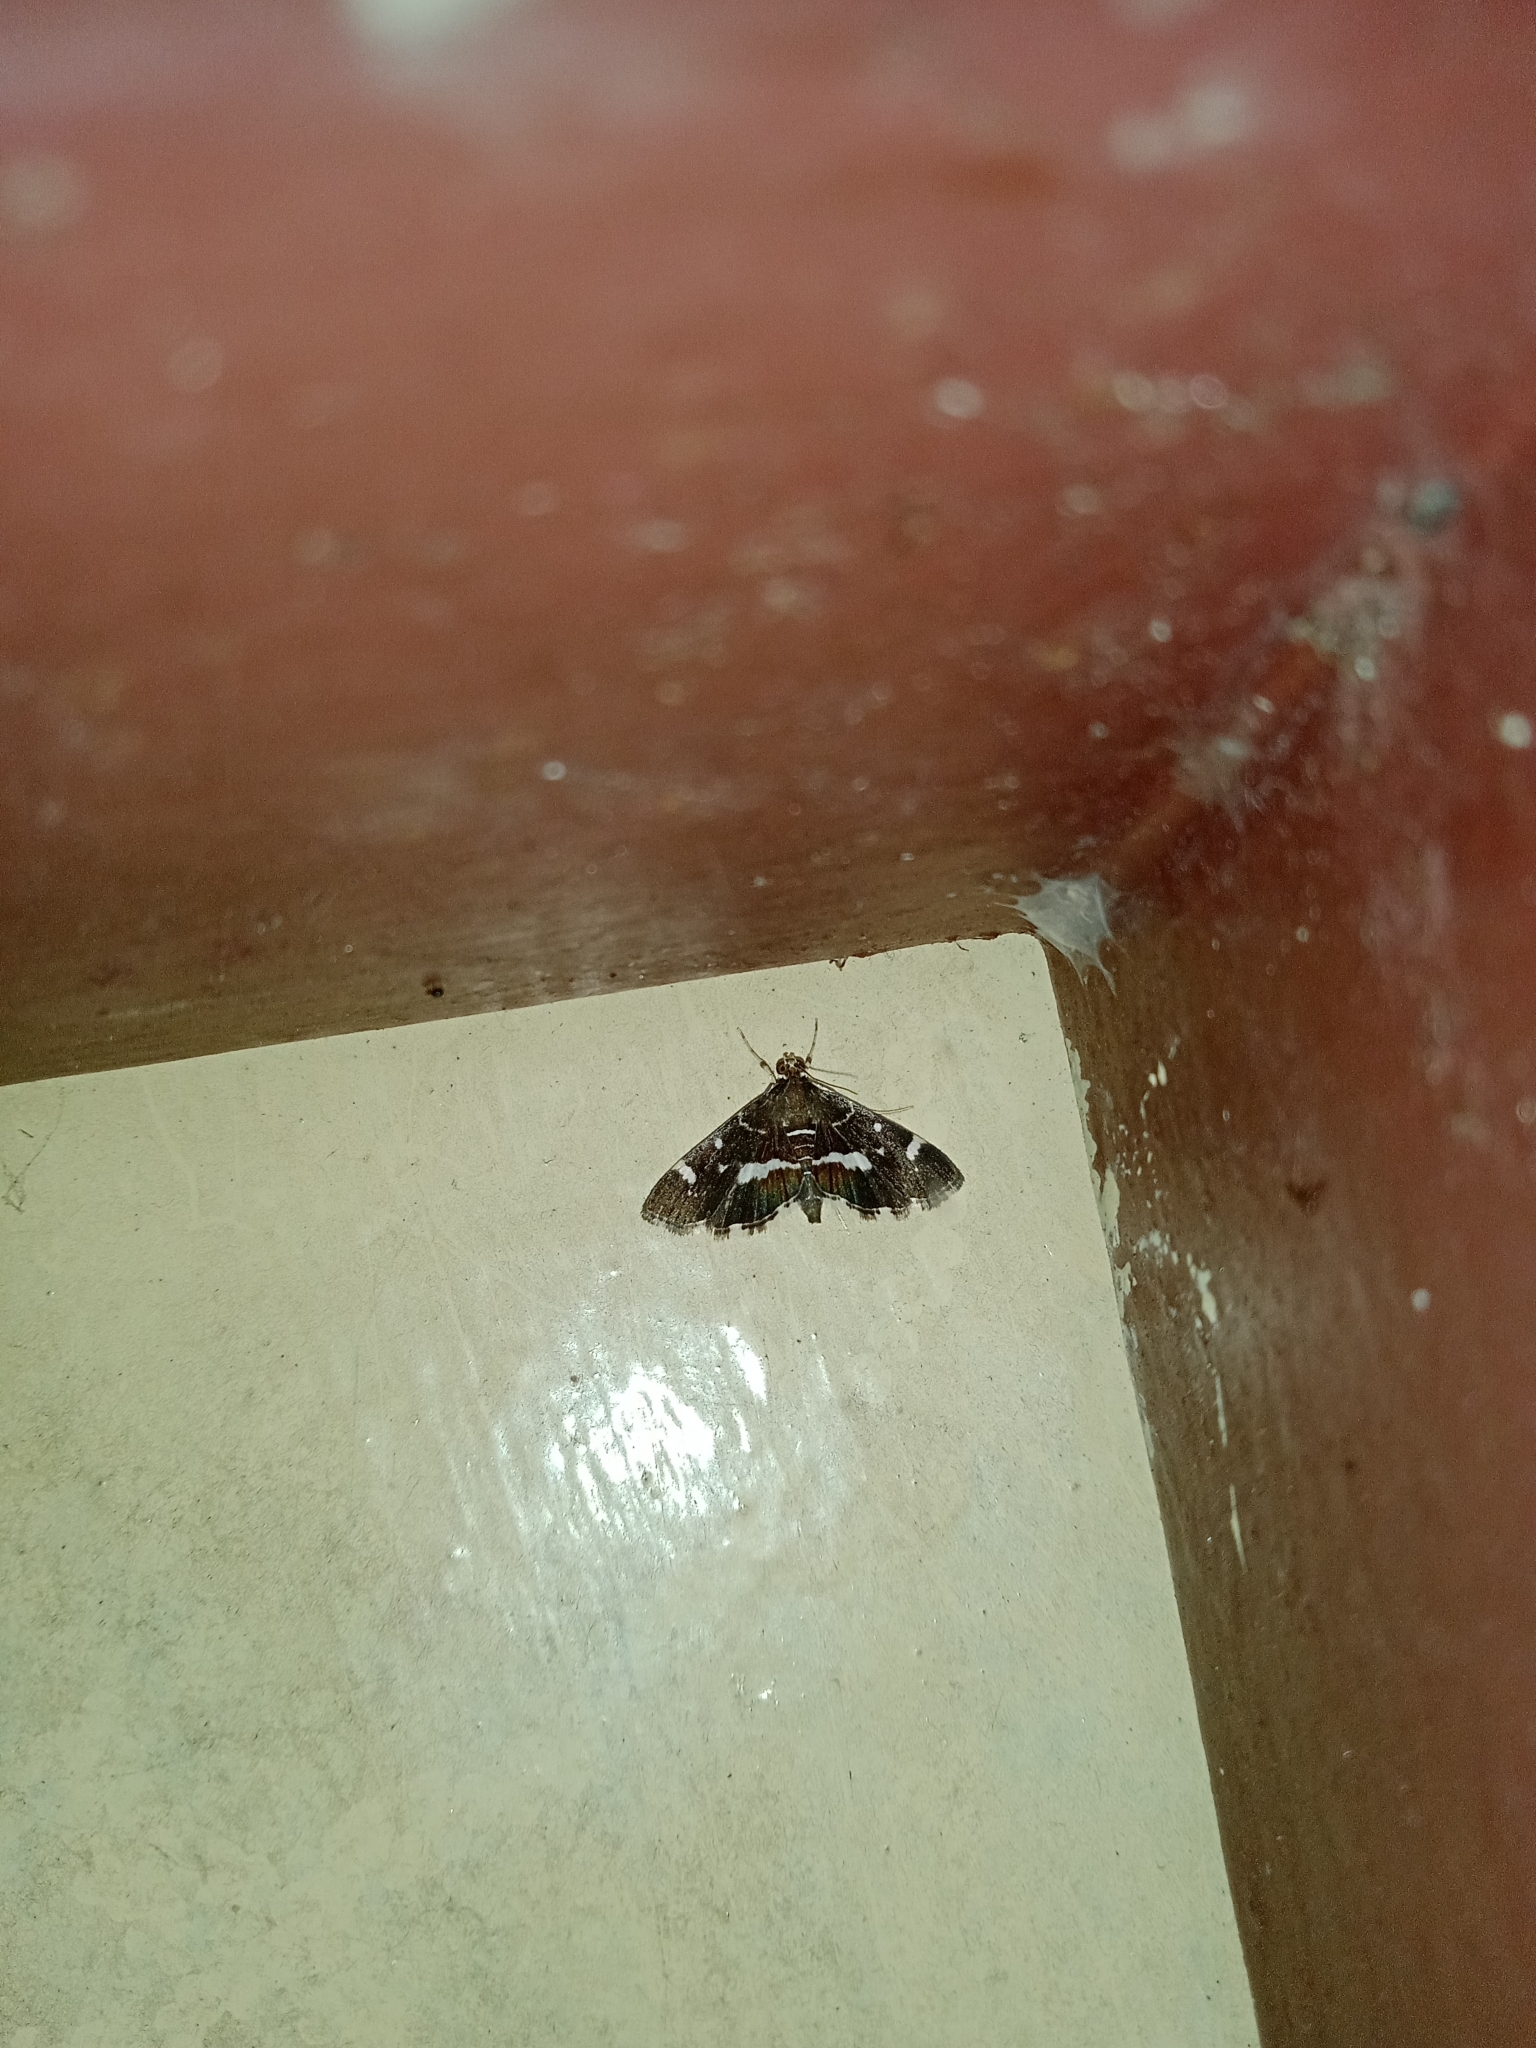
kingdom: Animalia
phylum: Arthropoda
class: Insecta
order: Lepidoptera
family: Crambidae
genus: Hymenia
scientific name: Hymenia perspectalis
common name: Spotted beet webworm
